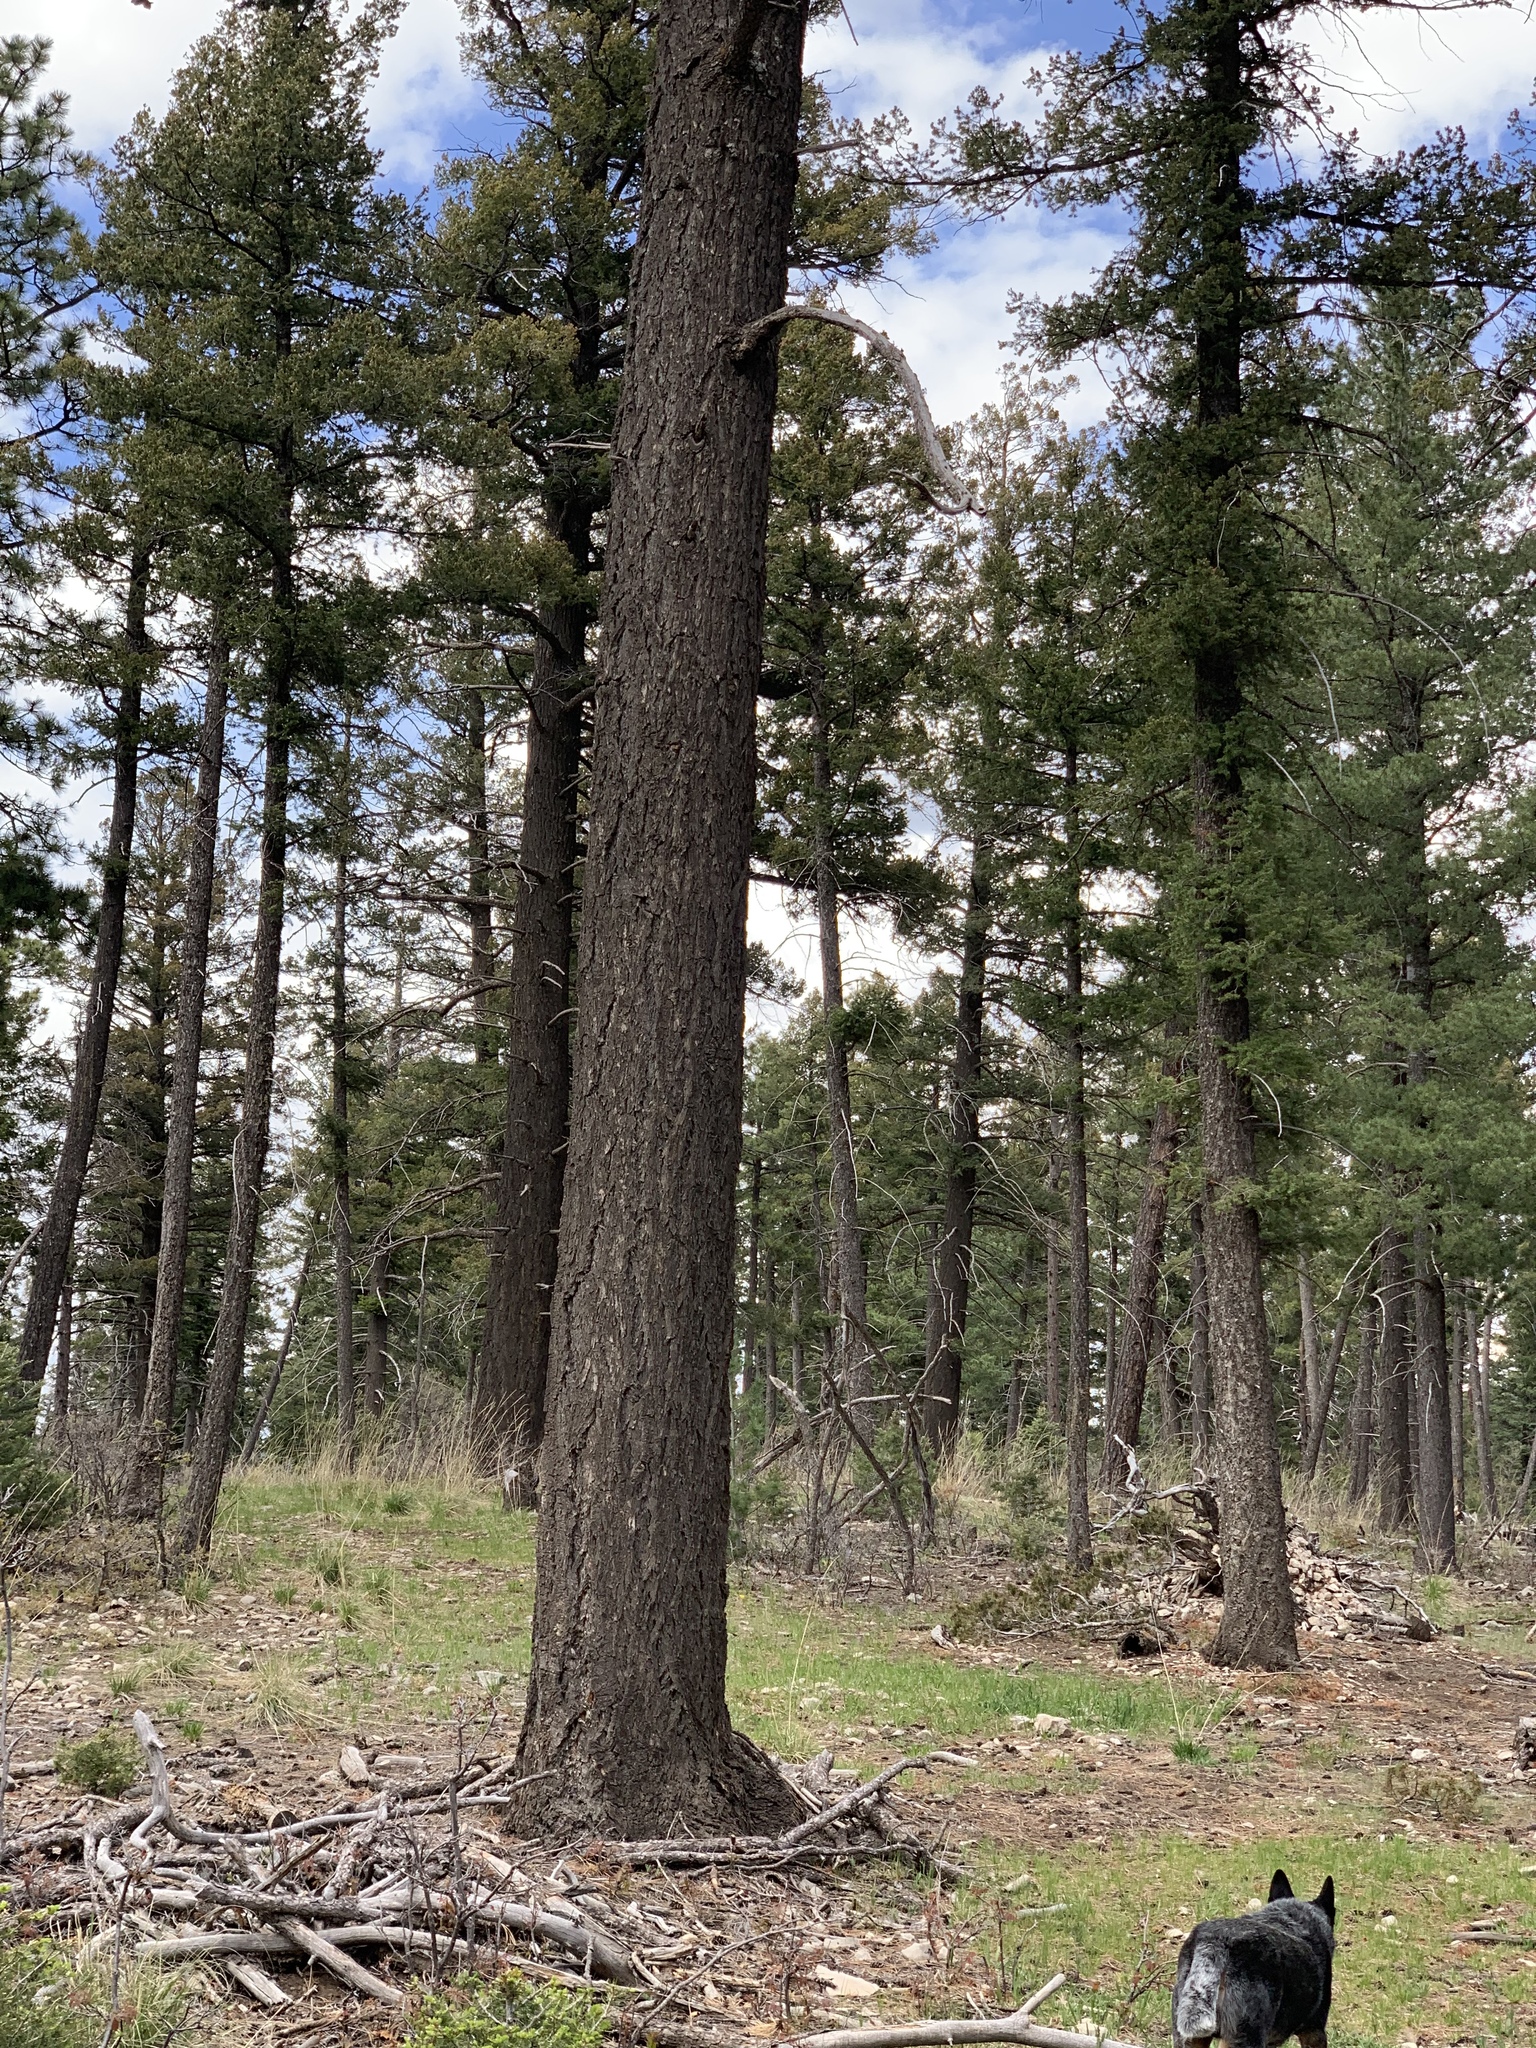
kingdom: Plantae
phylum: Tracheophyta
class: Pinopsida
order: Pinales
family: Pinaceae
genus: Pseudotsuga
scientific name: Pseudotsuga menziesii
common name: Douglas fir
